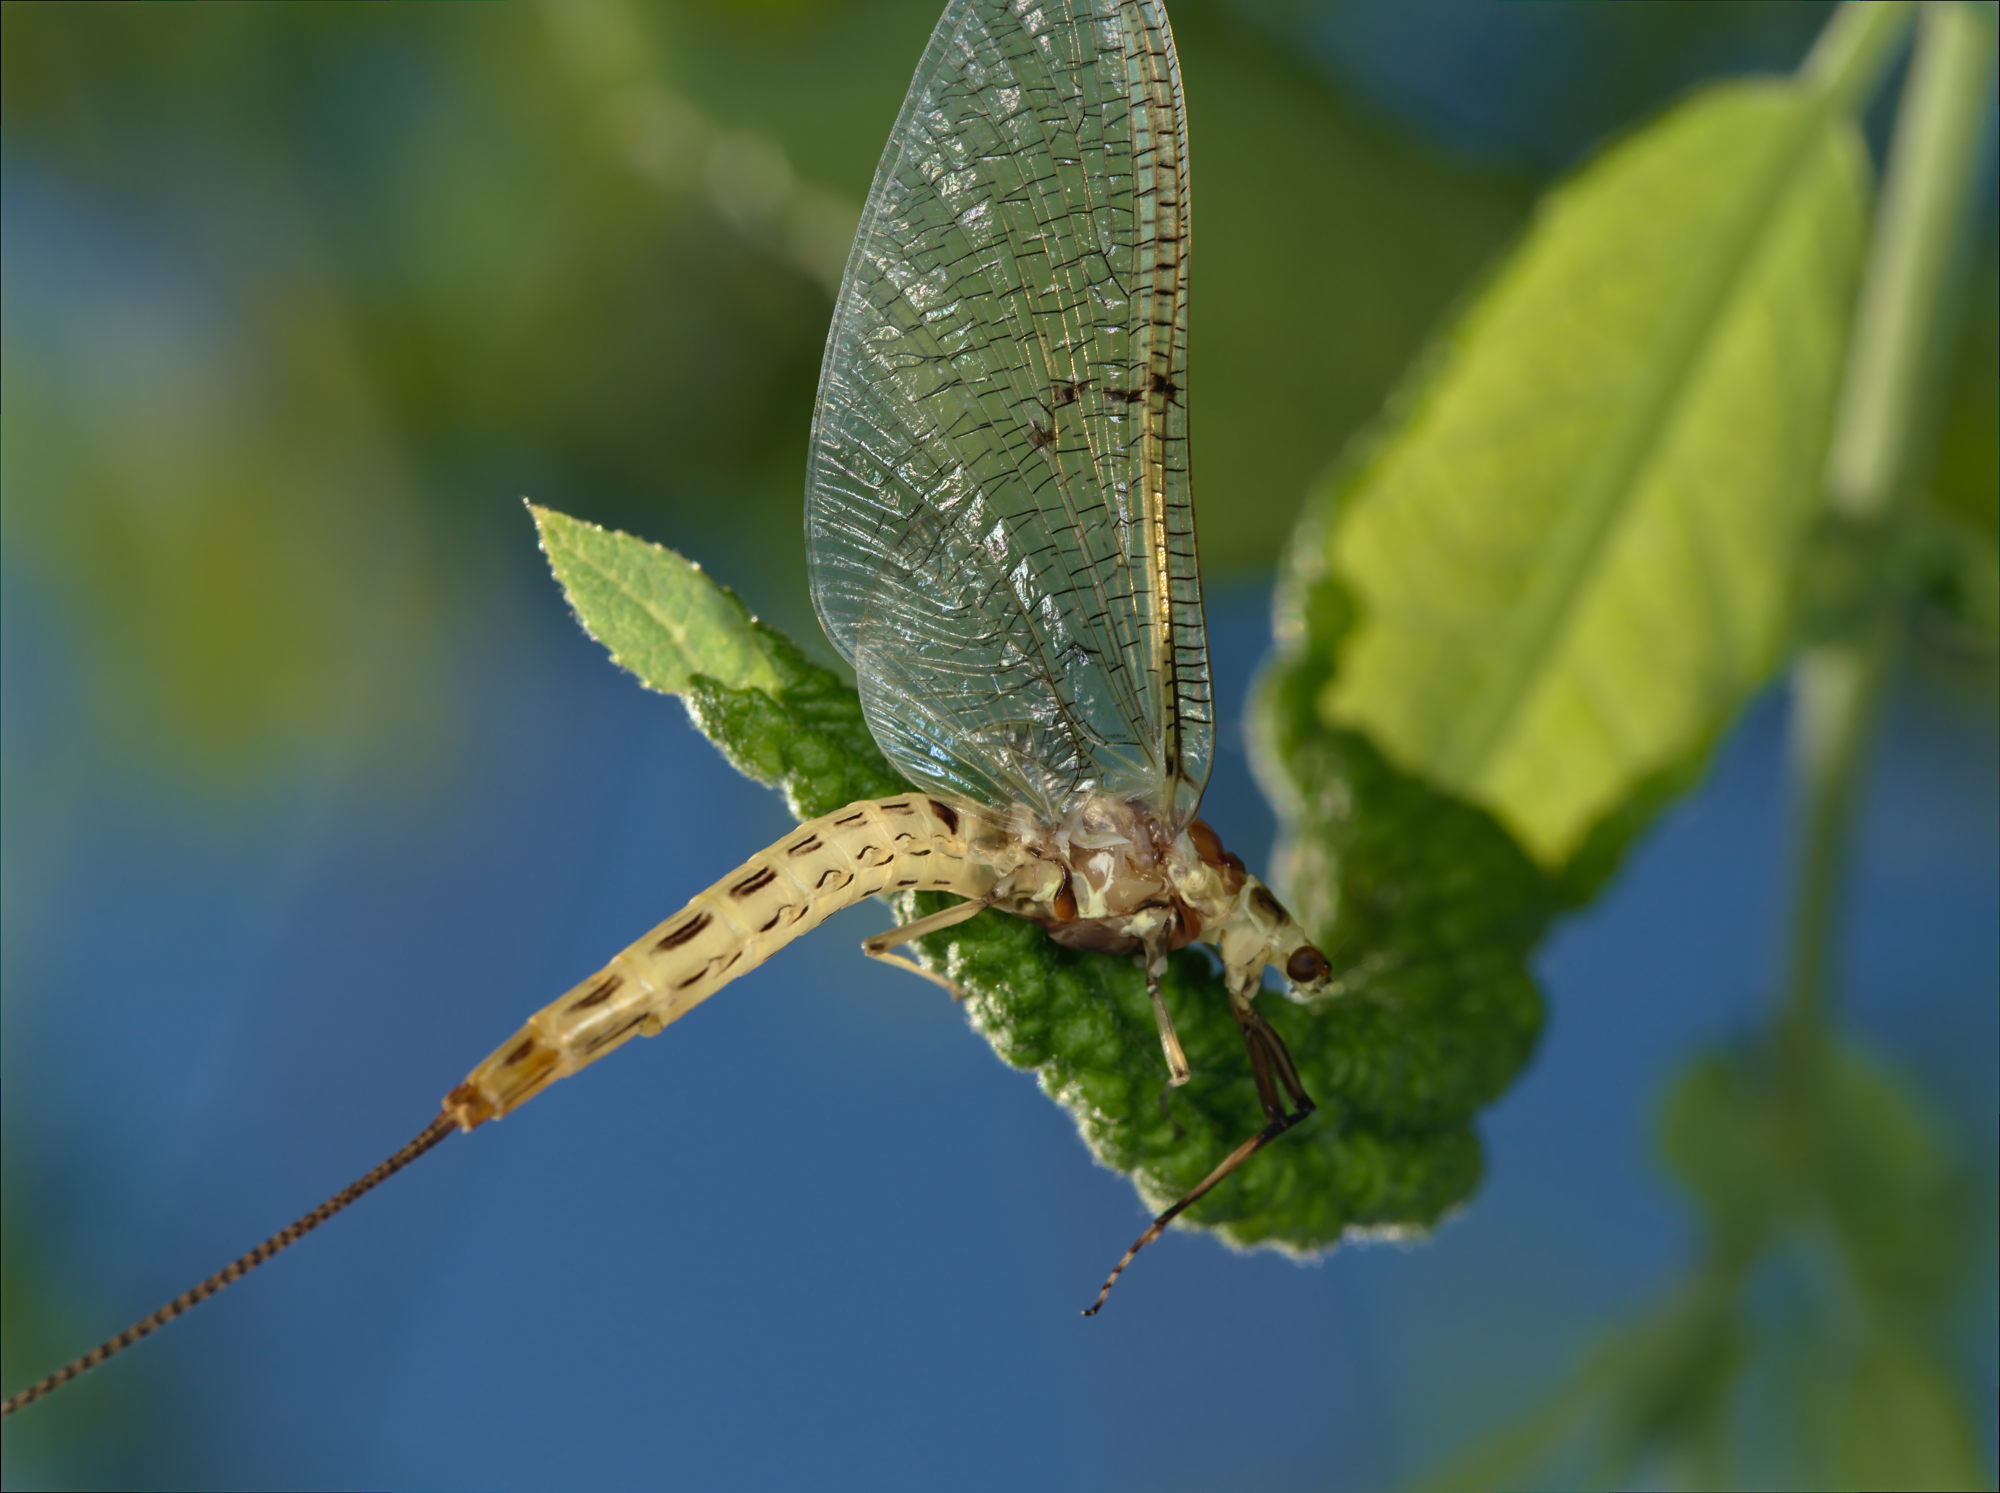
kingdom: Animalia
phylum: Arthropoda
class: Insecta
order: Ephemeroptera
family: Ephemeridae
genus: Ephemera
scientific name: Ephemera lineata
